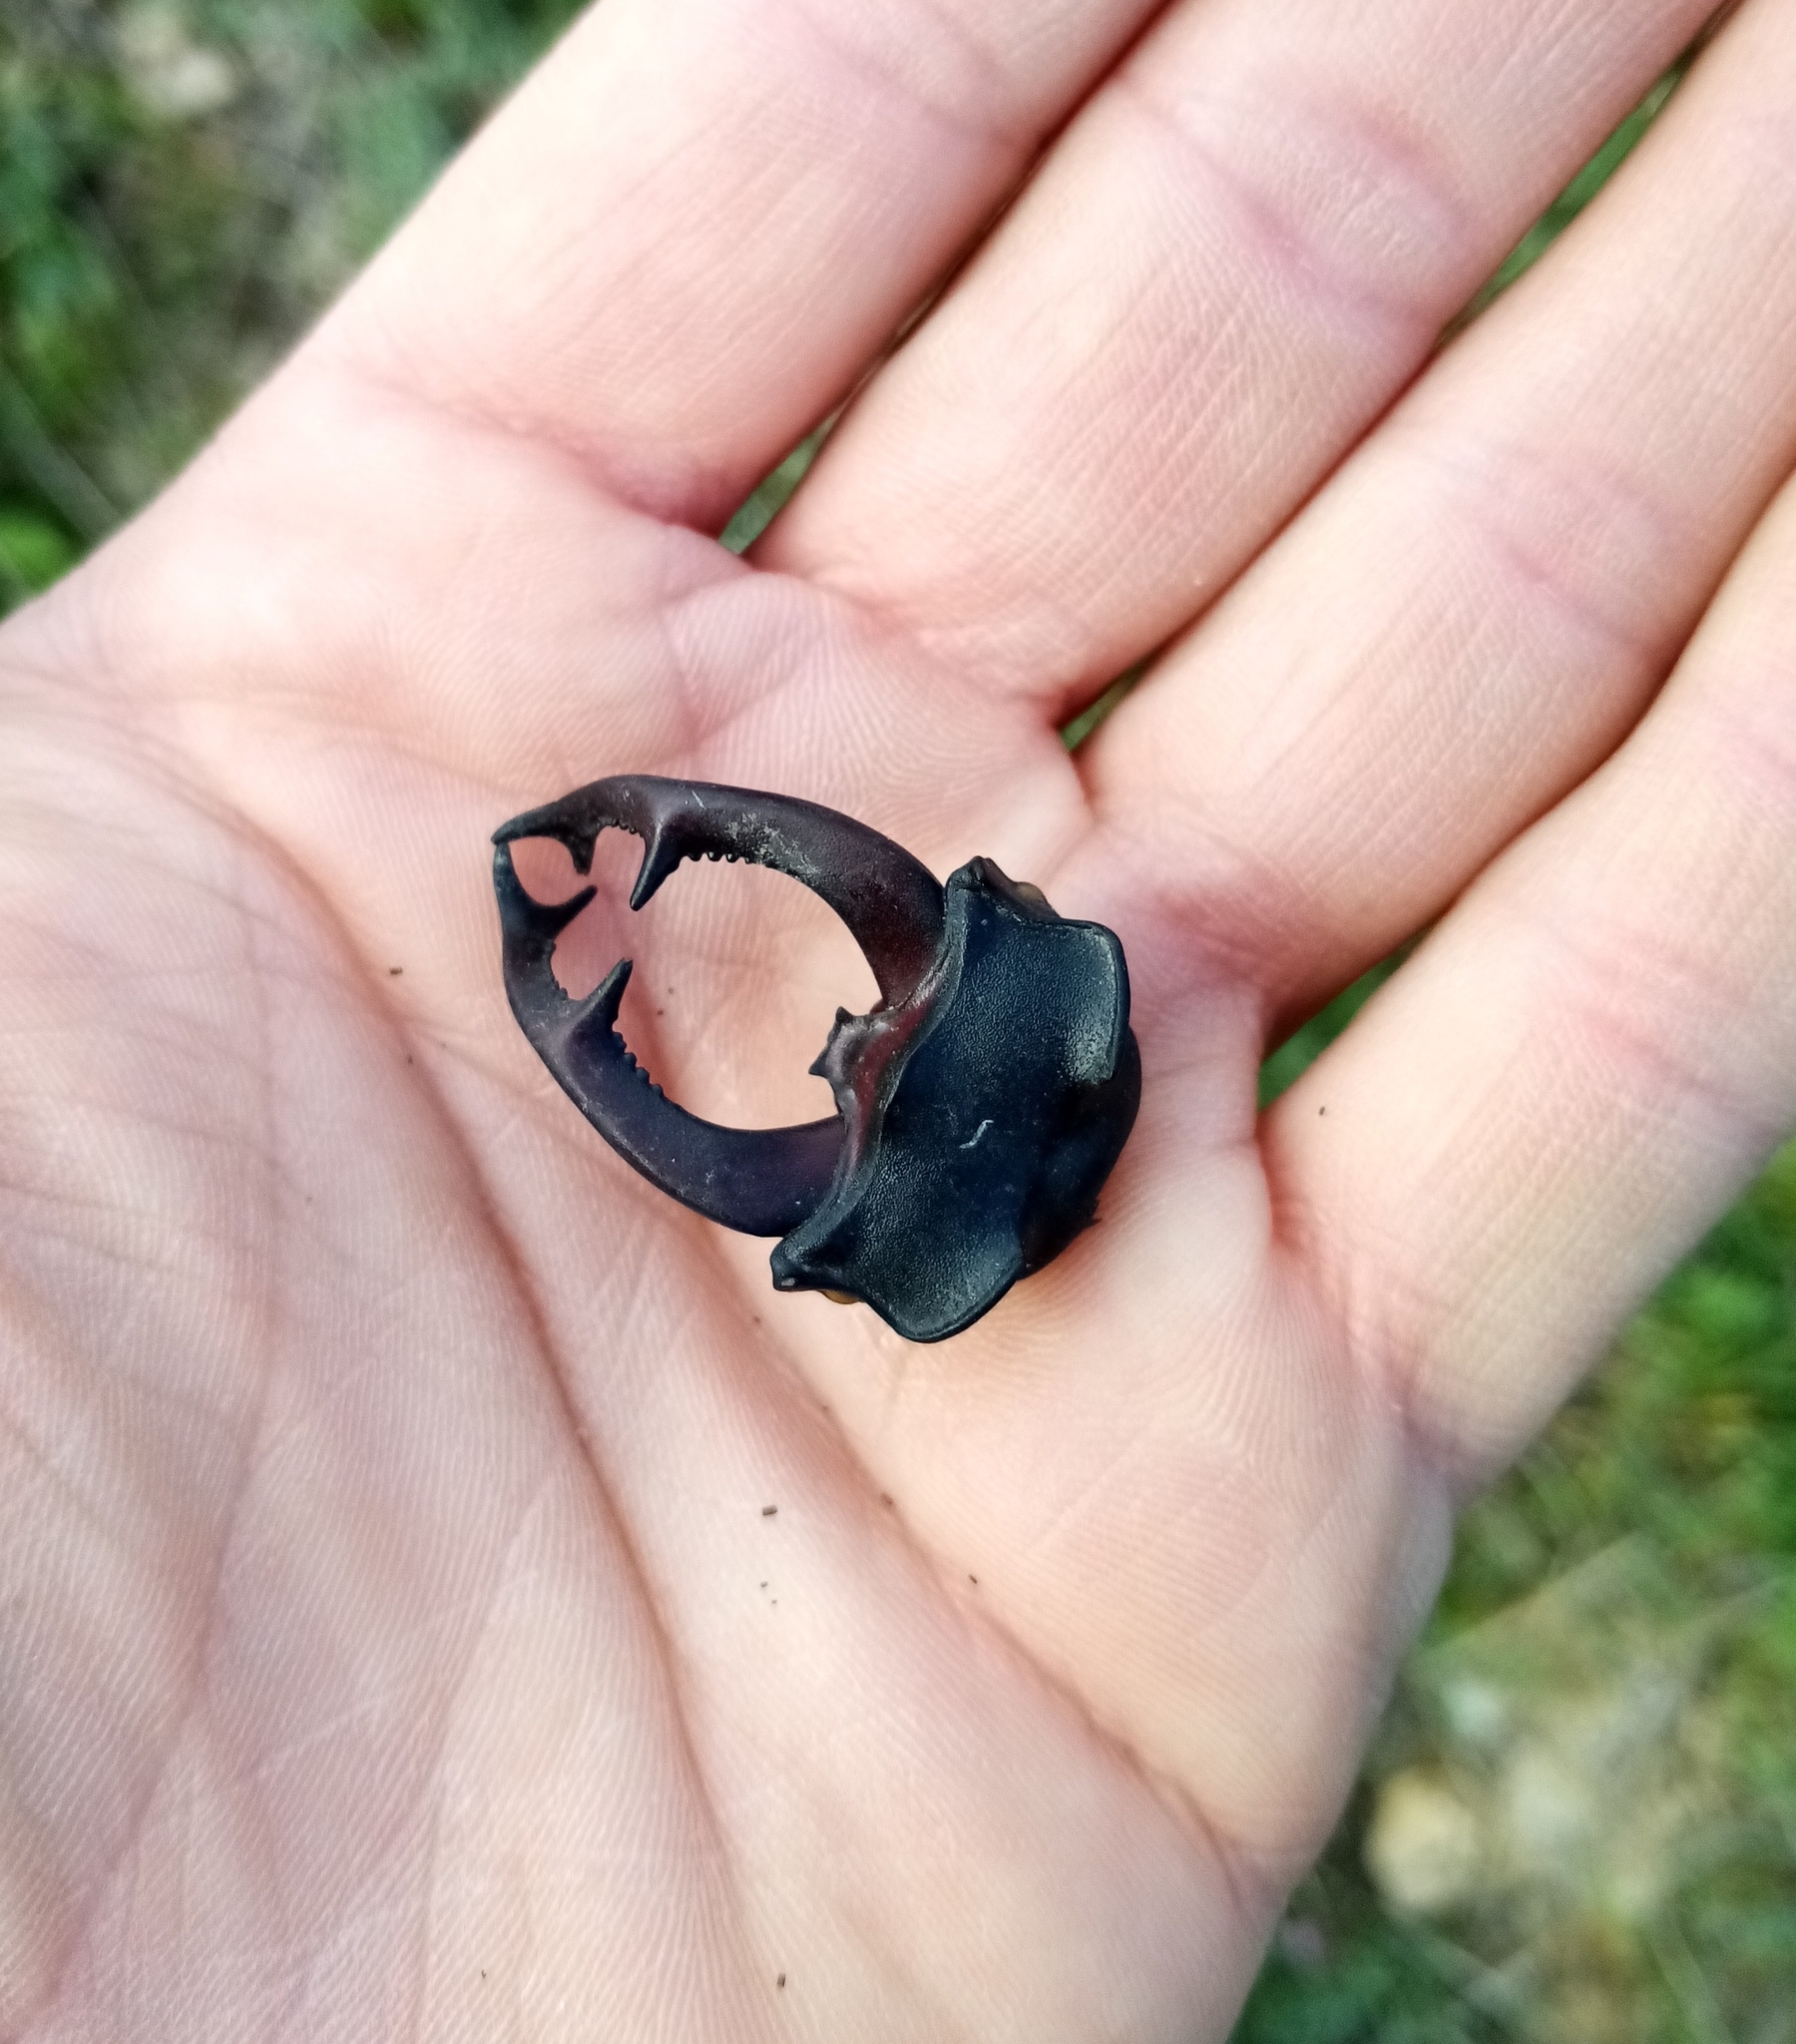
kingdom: Animalia
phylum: Arthropoda
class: Insecta
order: Coleoptera
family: Lucanidae
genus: Lucanus
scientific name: Lucanus cervus
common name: Stag beetle
